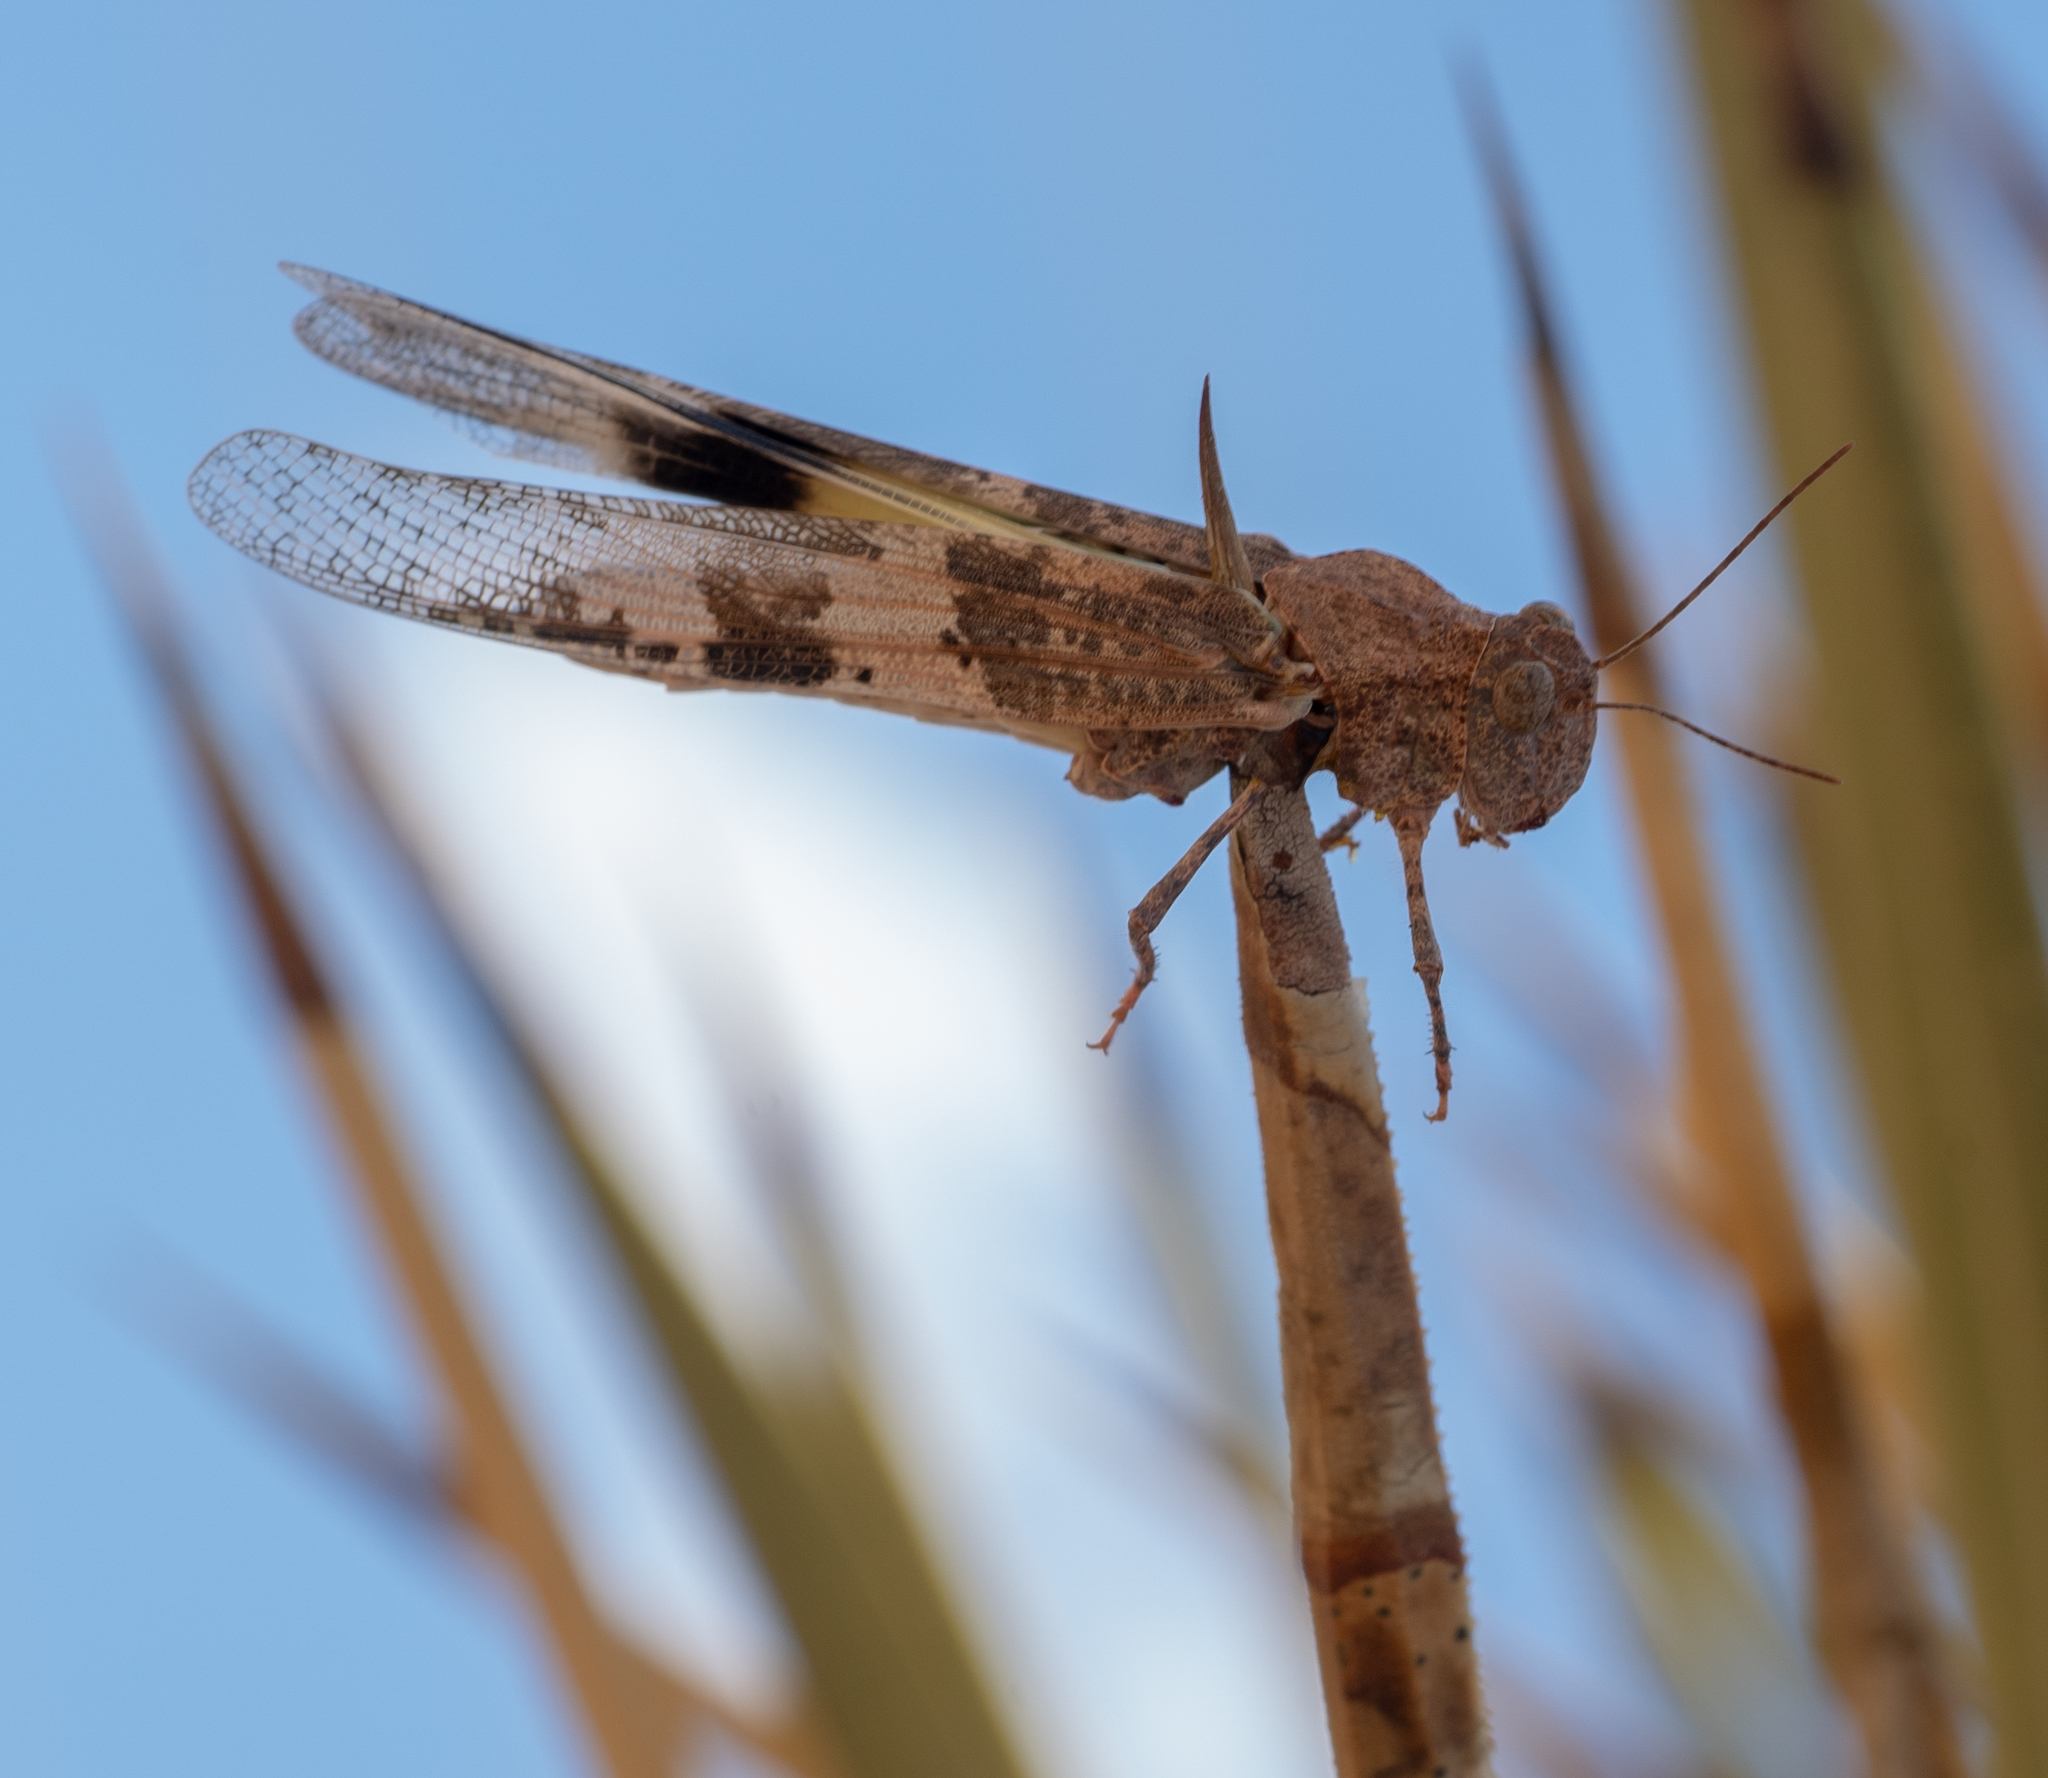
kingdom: Animalia
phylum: Arthropoda
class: Insecta
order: Orthoptera
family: Acrididae
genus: Trimerotropis
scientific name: Trimerotropis pallidipennis
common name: Pallid-winged grasshopper
